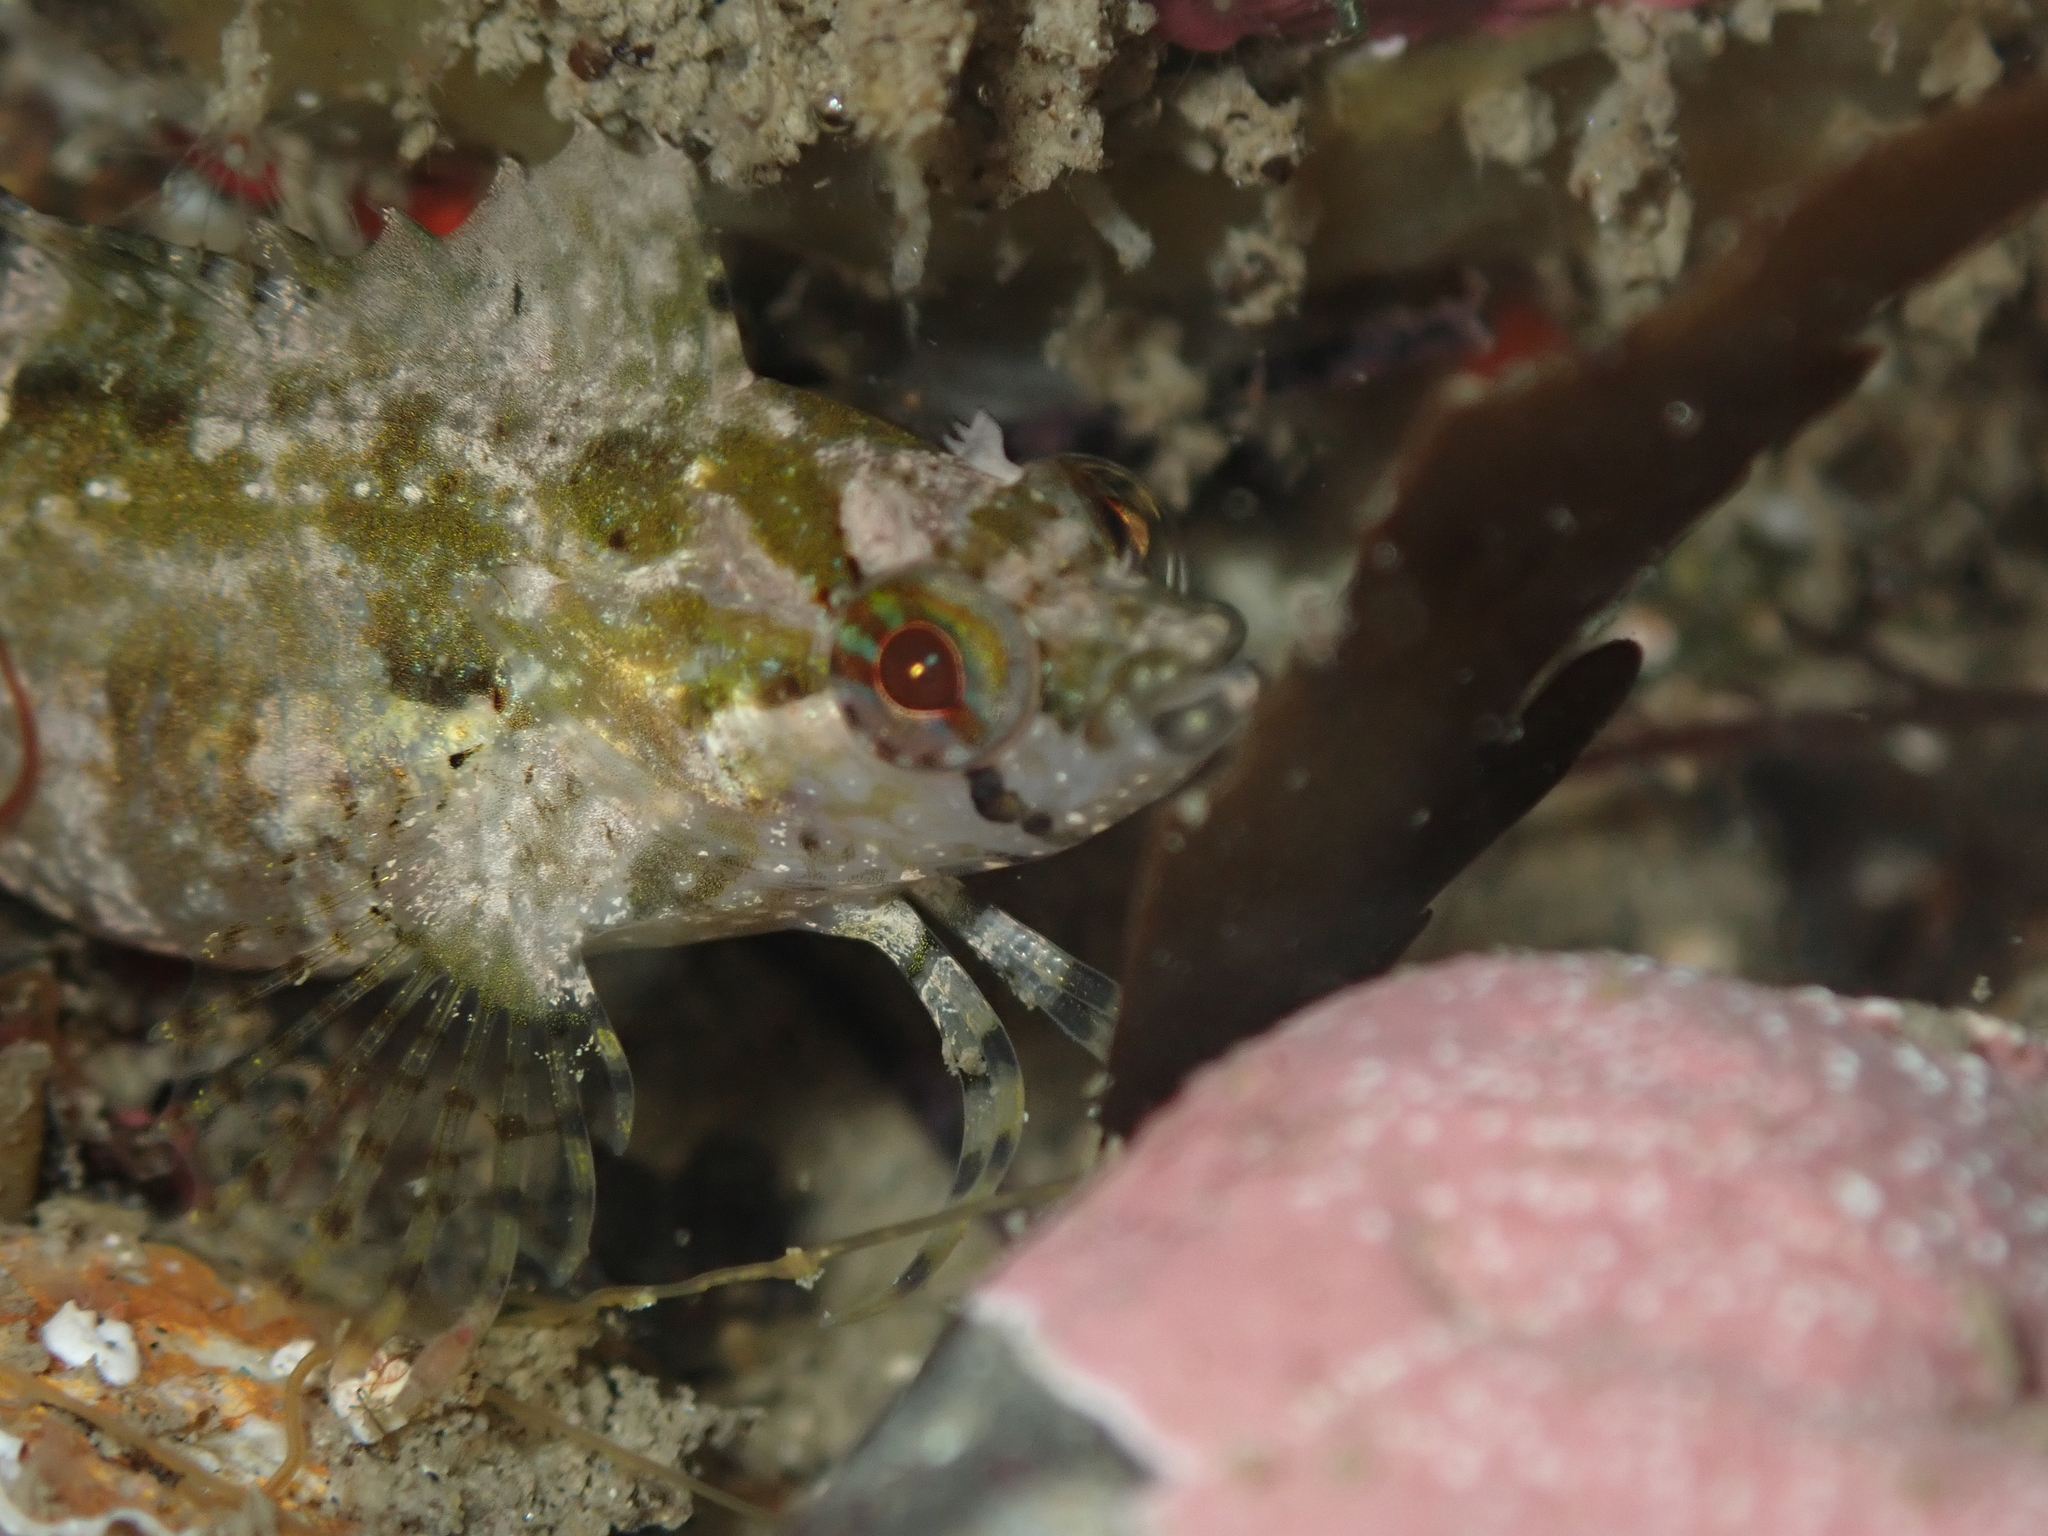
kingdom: Animalia
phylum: Chordata
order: Perciformes
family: Clinidae
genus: Ericentrus
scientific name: Ericentrus rubrus
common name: Orange clinid
